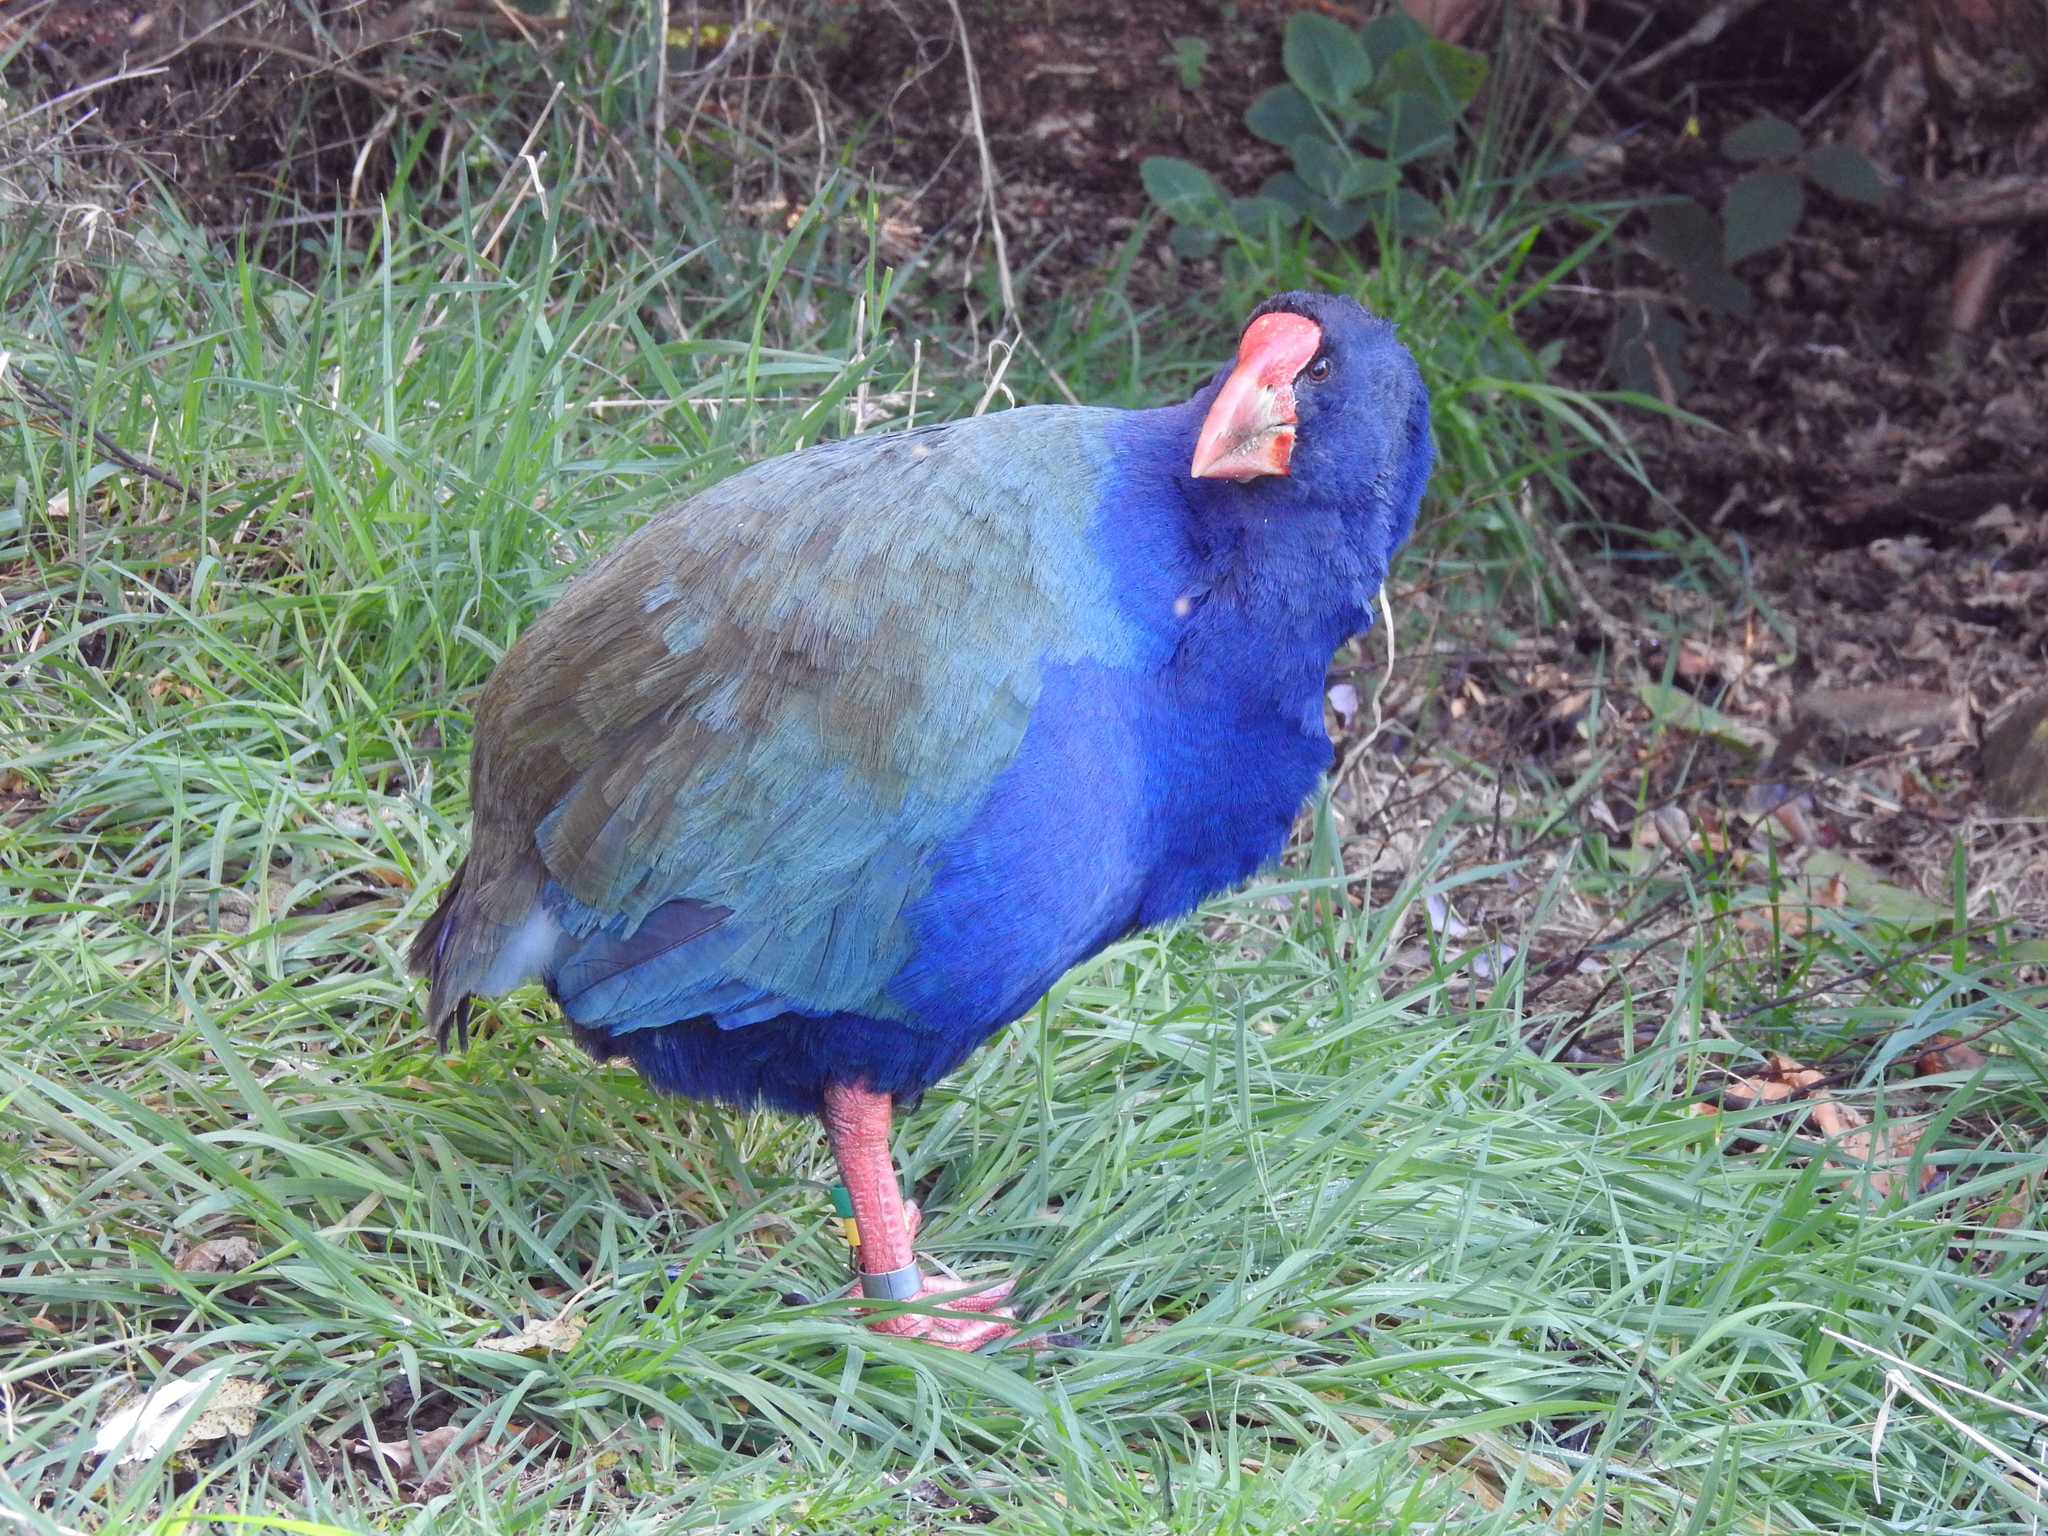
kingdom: Animalia
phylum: Chordata
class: Aves
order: Gruiformes
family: Rallidae
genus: Porphyrio
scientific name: Porphyrio hochstetteri
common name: South island takahe
